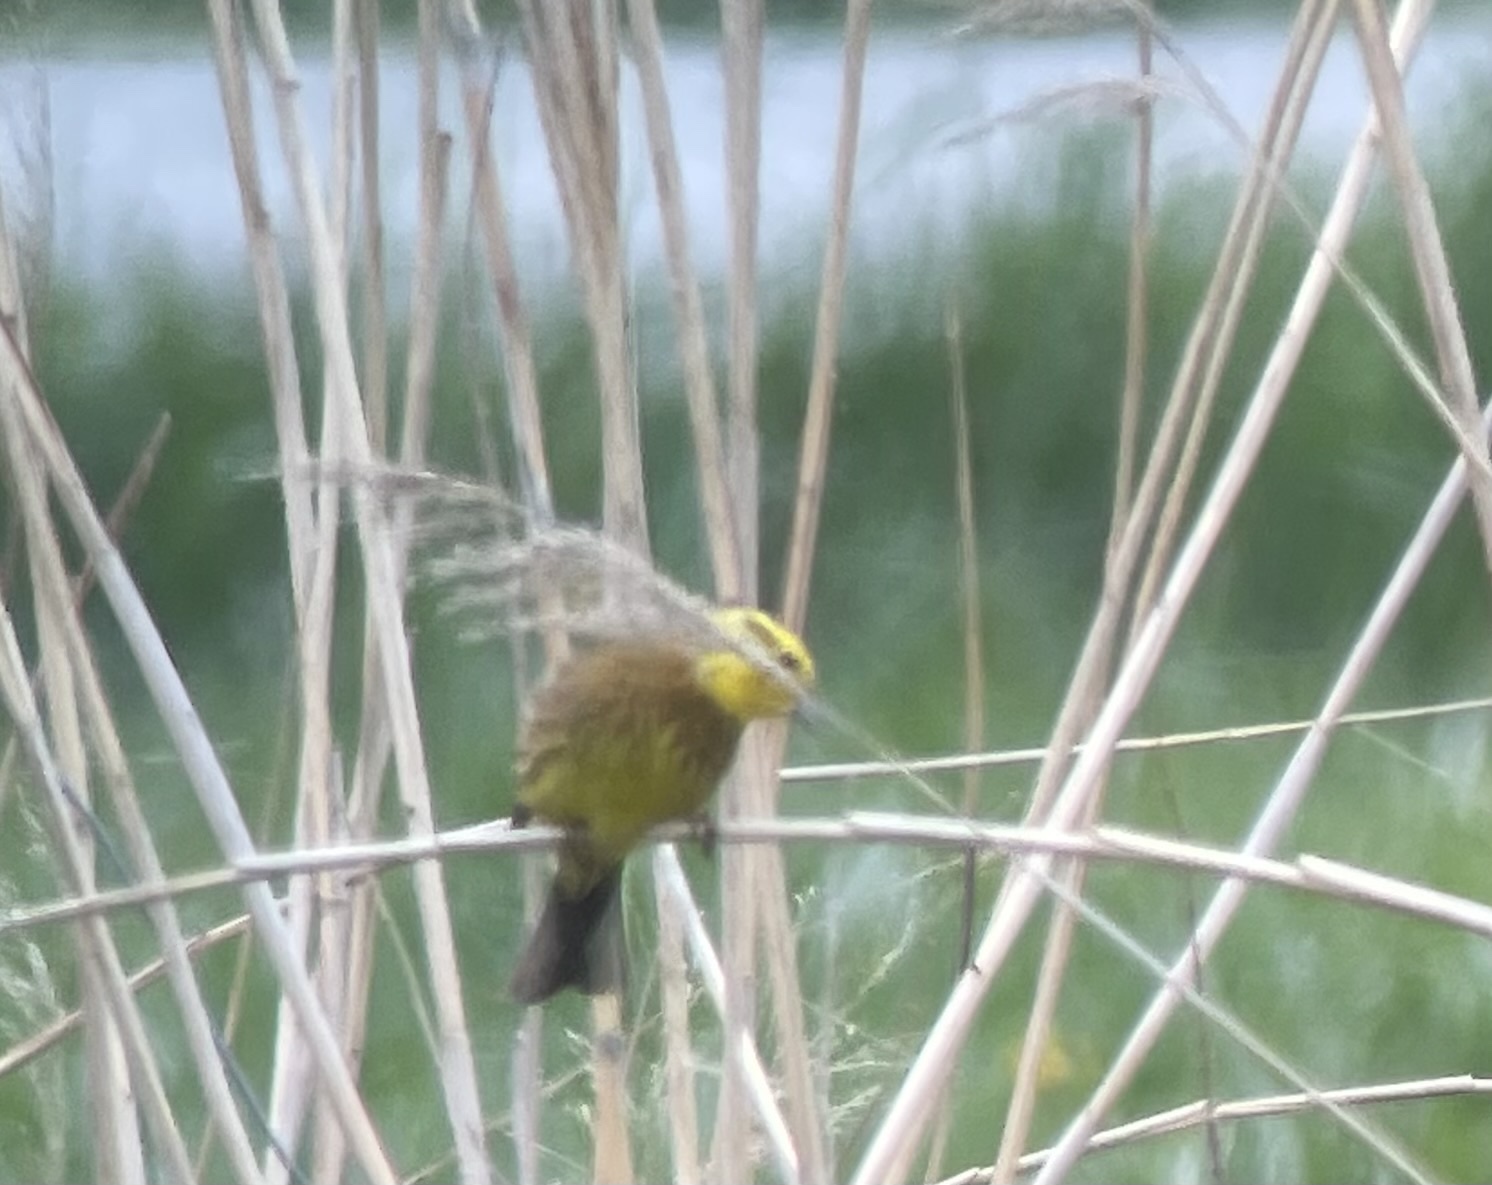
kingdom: Animalia
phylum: Chordata
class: Aves
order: Passeriformes
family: Emberizidae
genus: Emberiza
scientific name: Emberiza citrinella
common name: Yellowhammer
